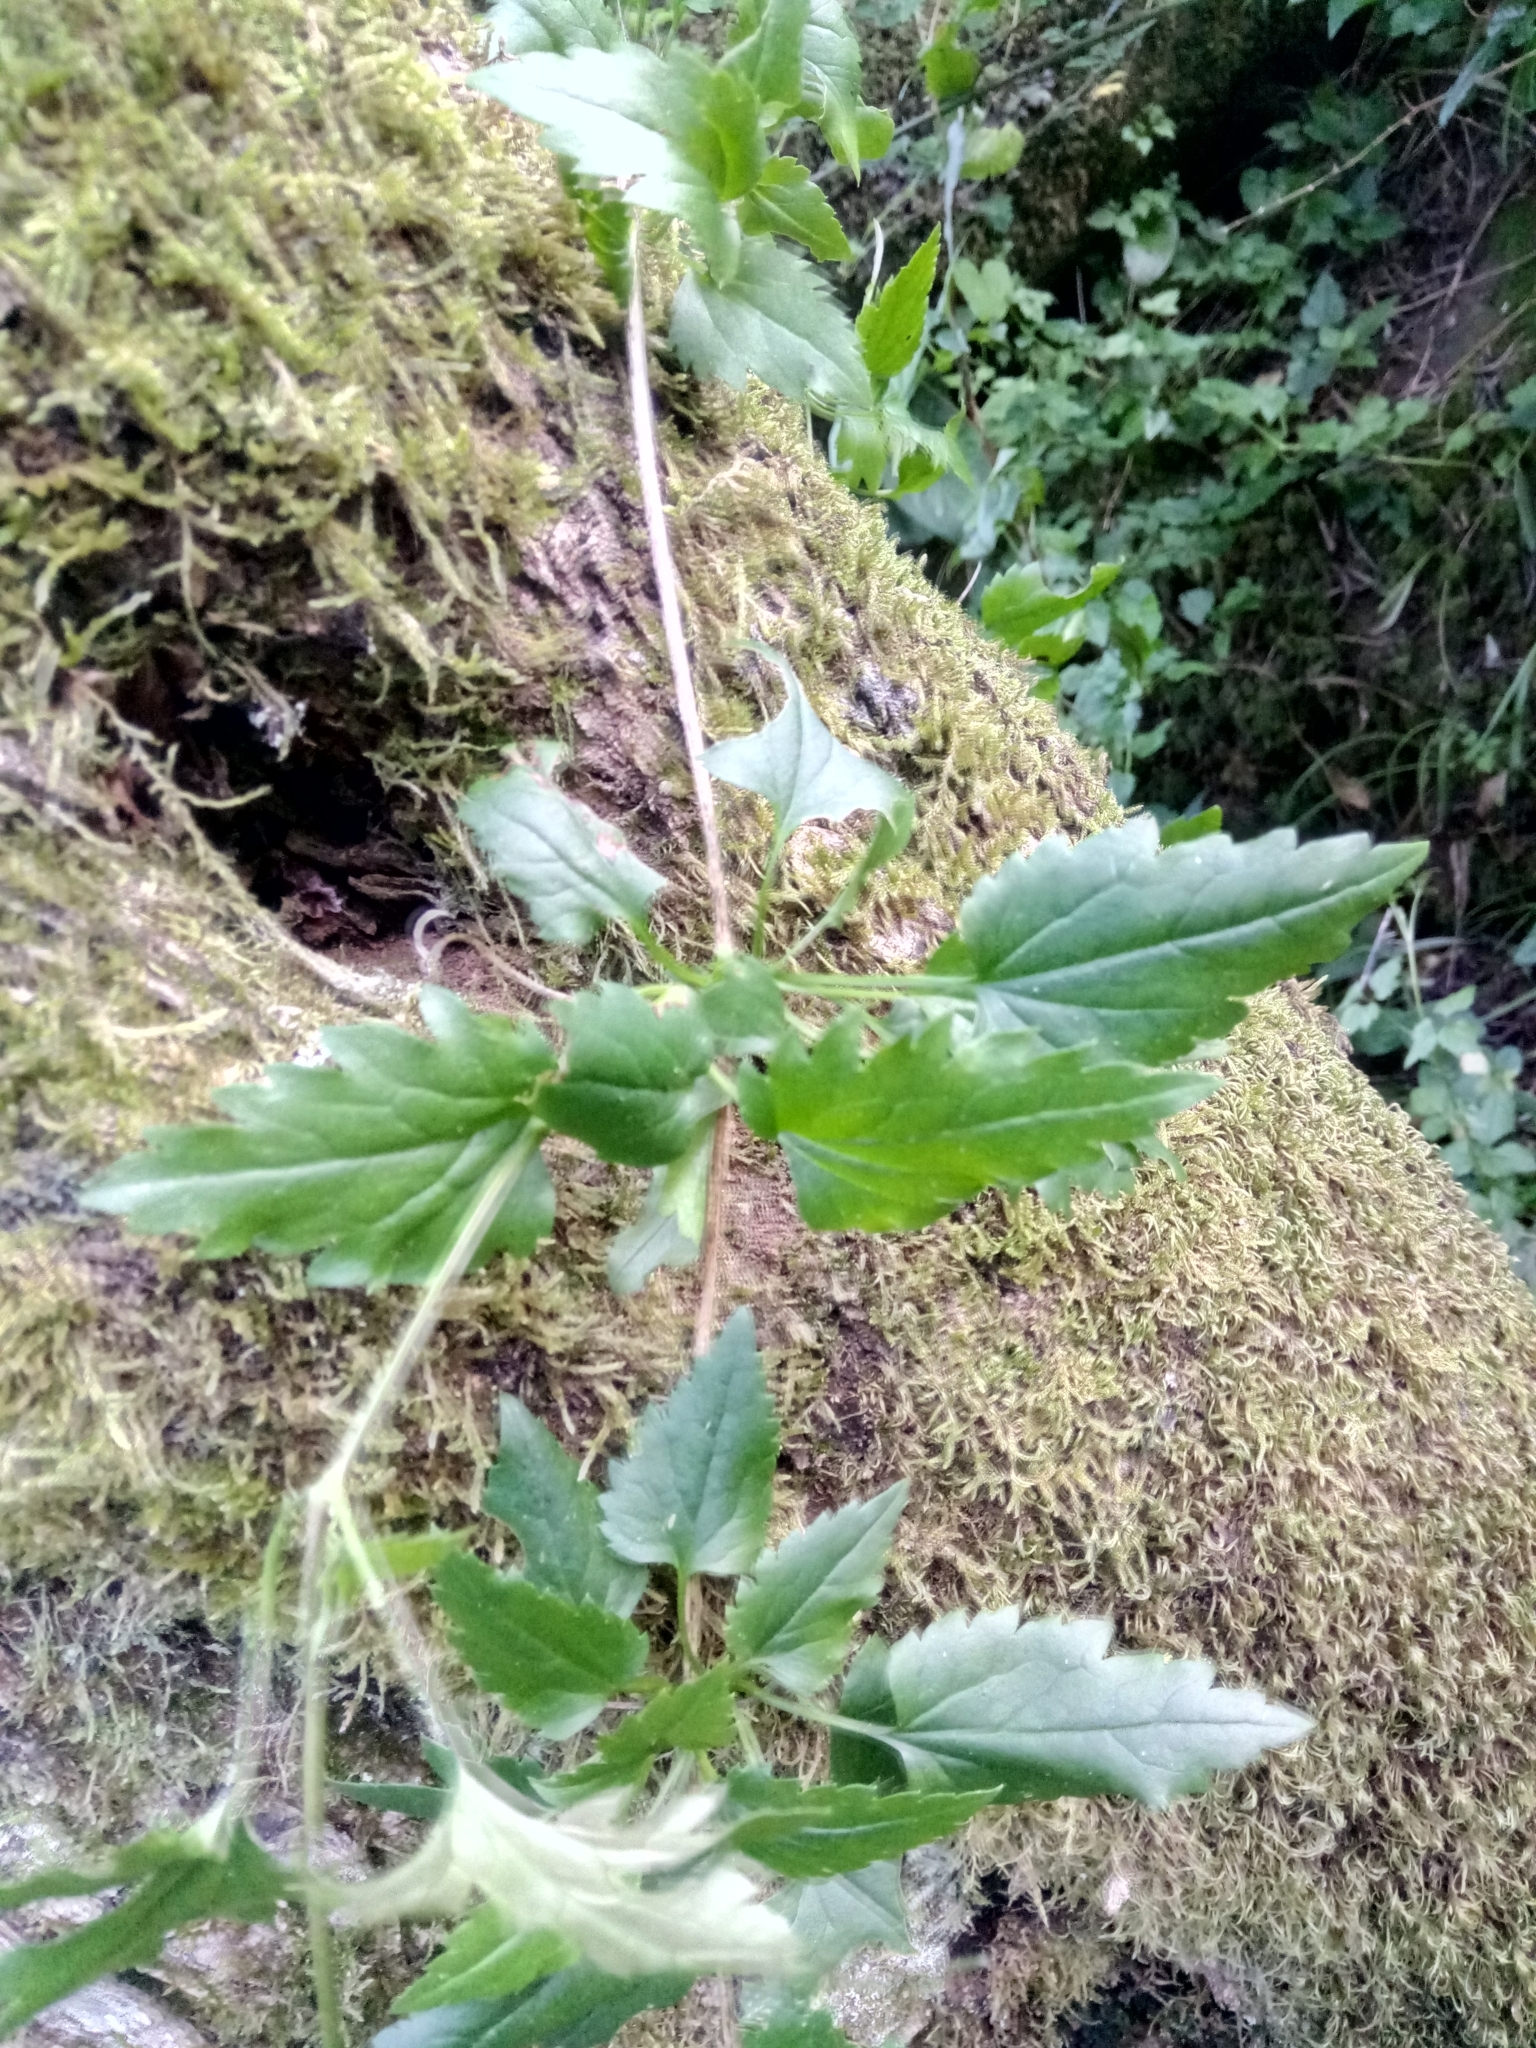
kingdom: Plantae
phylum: Tracheophyta
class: Magnoliopsida
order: Ranunculales
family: Ranunculaceae
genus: Clematis
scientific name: Clematis cirrhosa
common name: Early virgin's-bower
